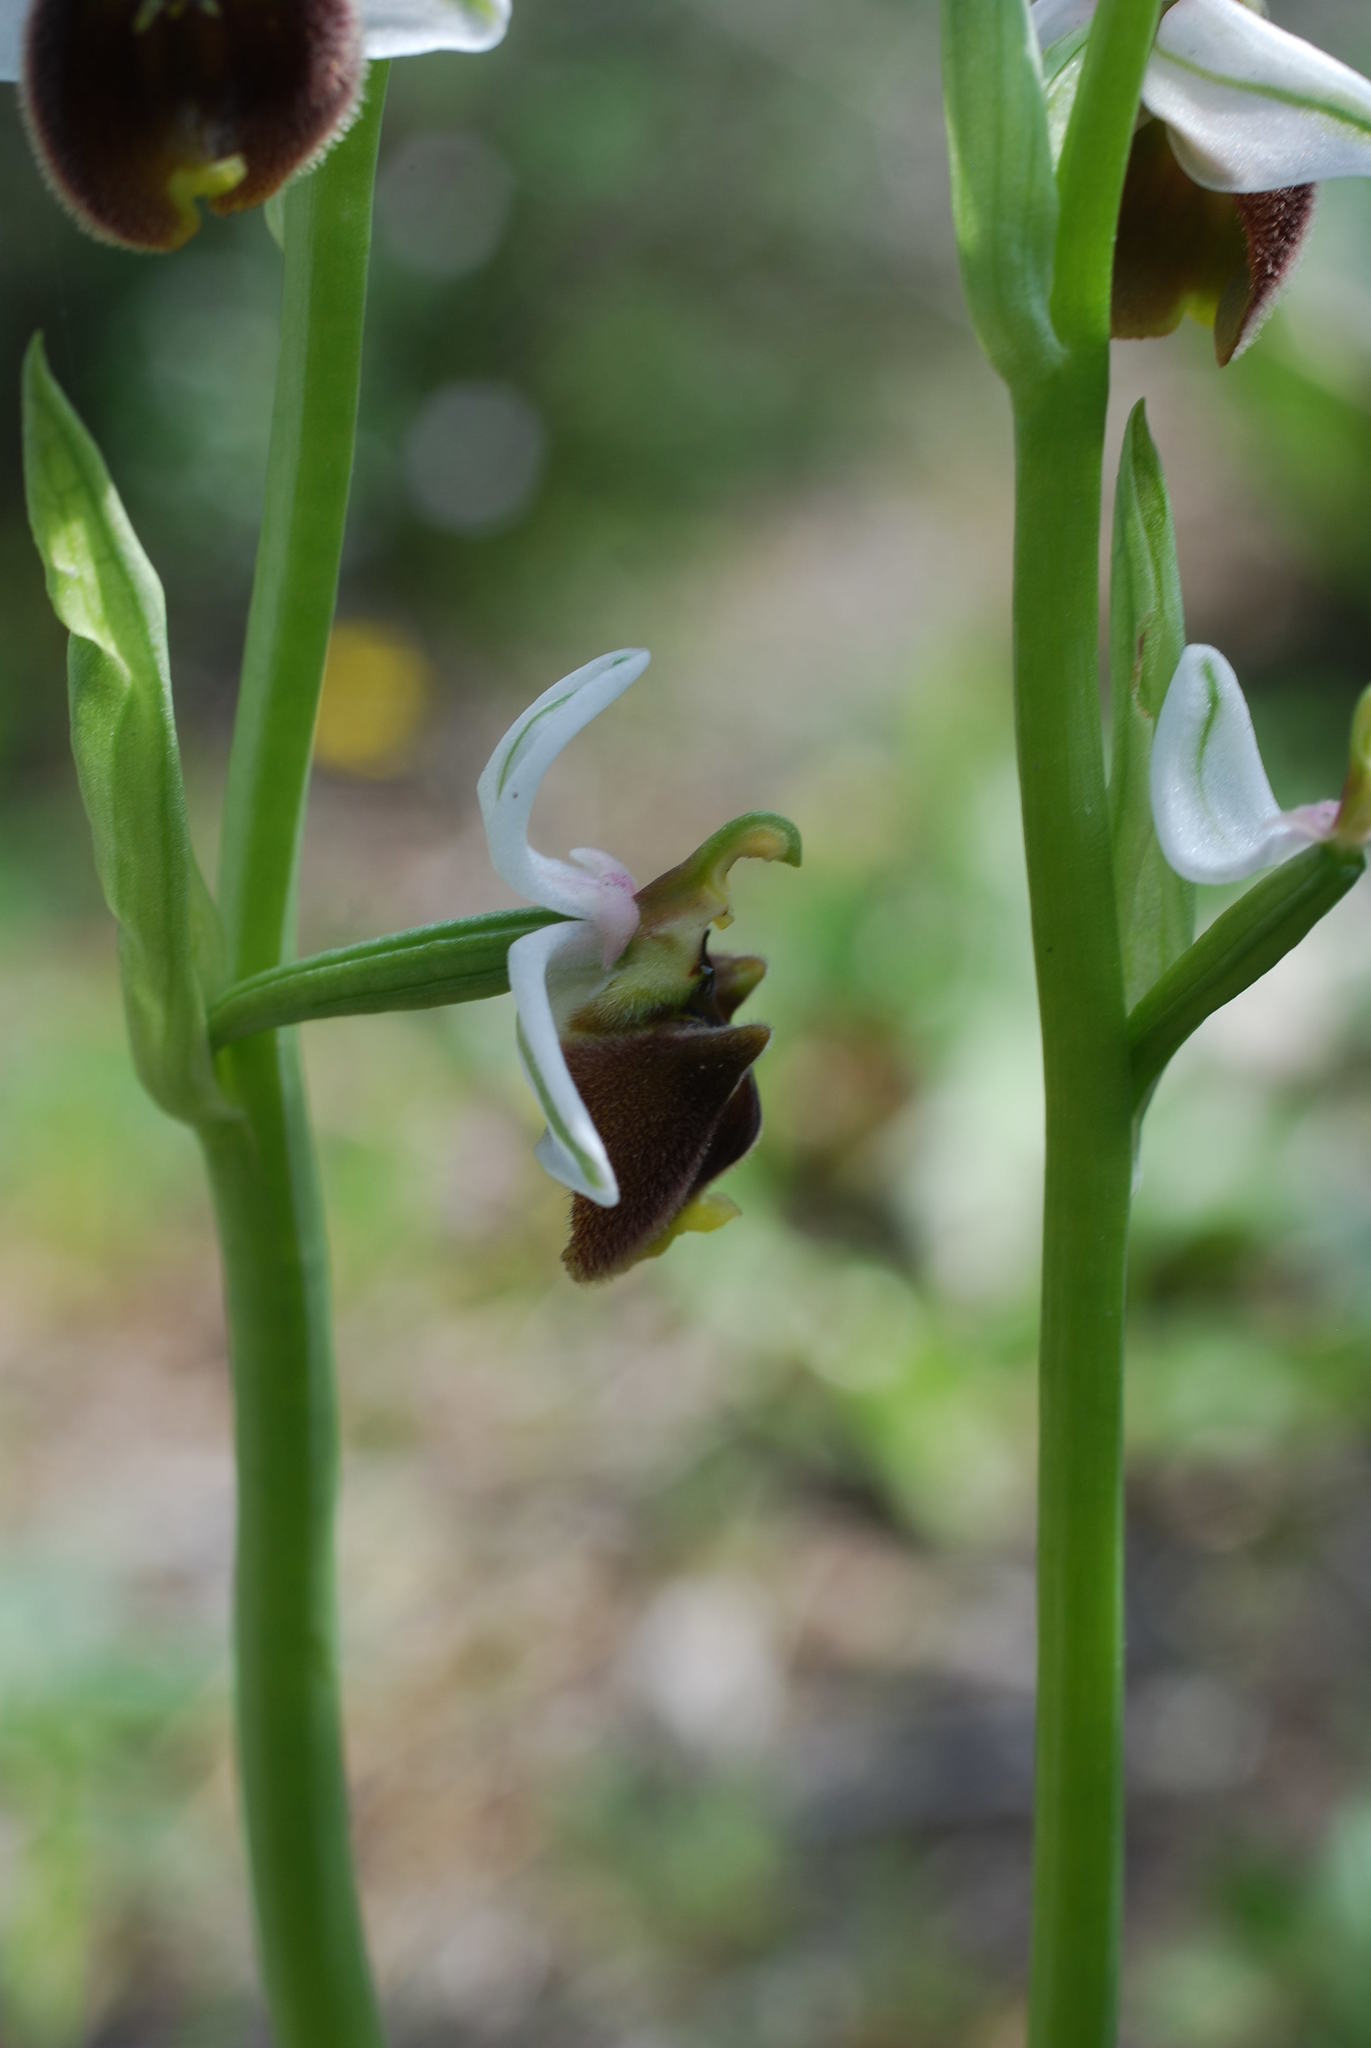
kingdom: Plantae
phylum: Tracheophyta
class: Liliopsida
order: Asparagales
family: Orchidaceae
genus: Ophrys
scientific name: Ophrys bornmuelleri
